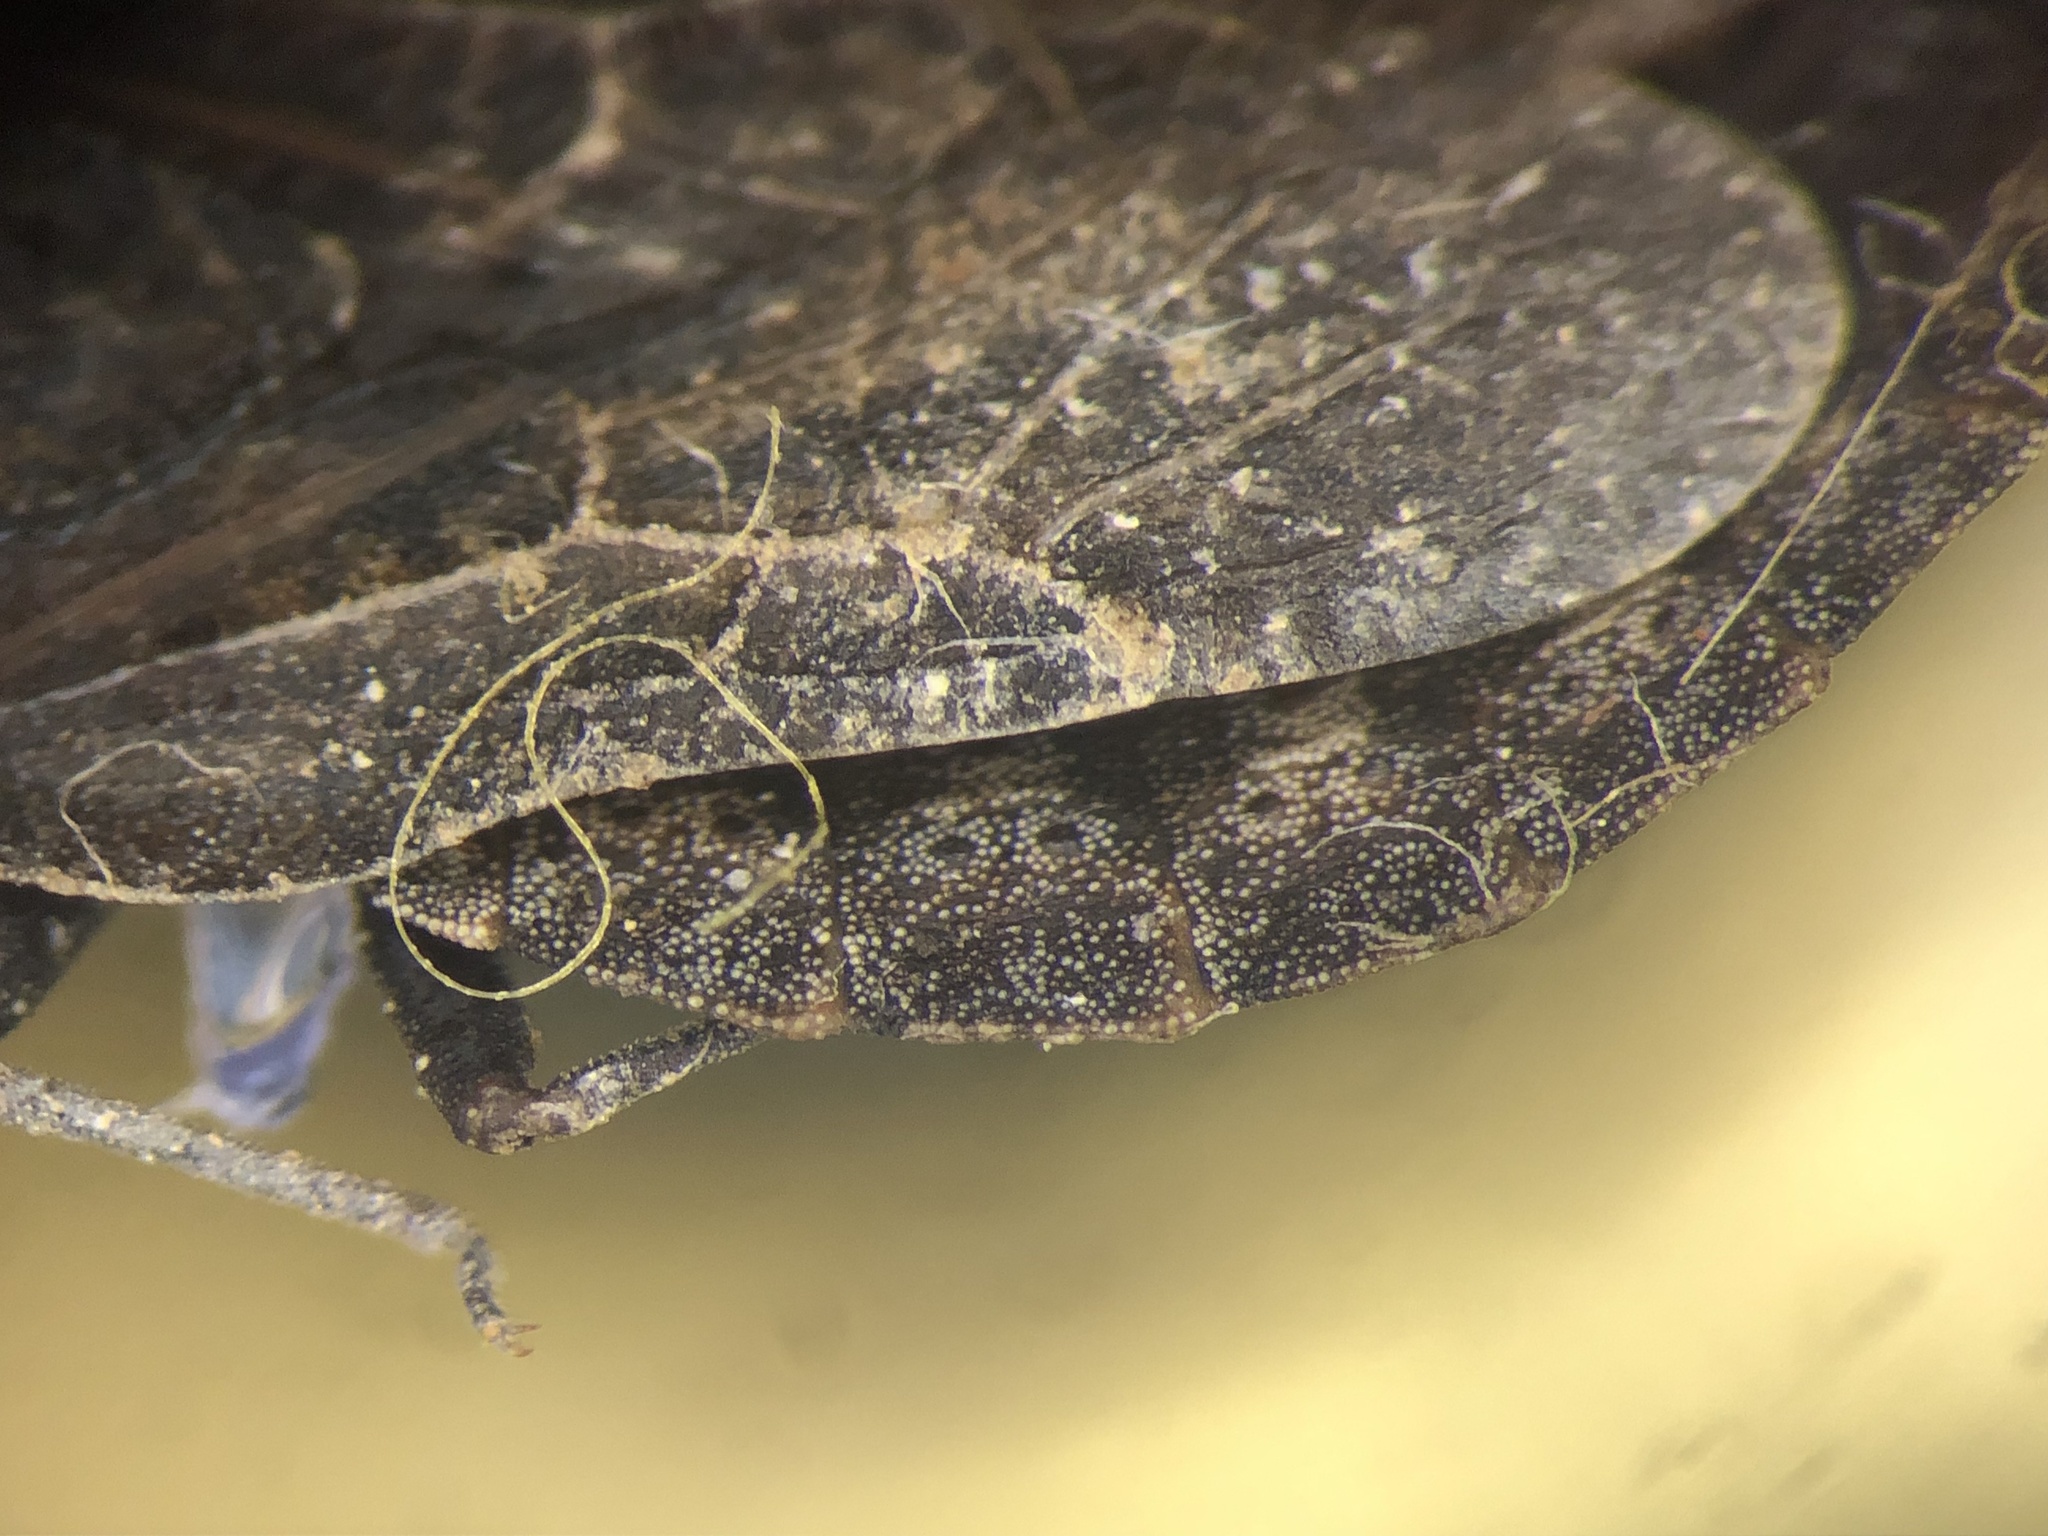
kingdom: Animalia
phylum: Arthropoda
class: Insecta
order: Hemiptera
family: Aradidae
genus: Aradus
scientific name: Aradus approximatus
